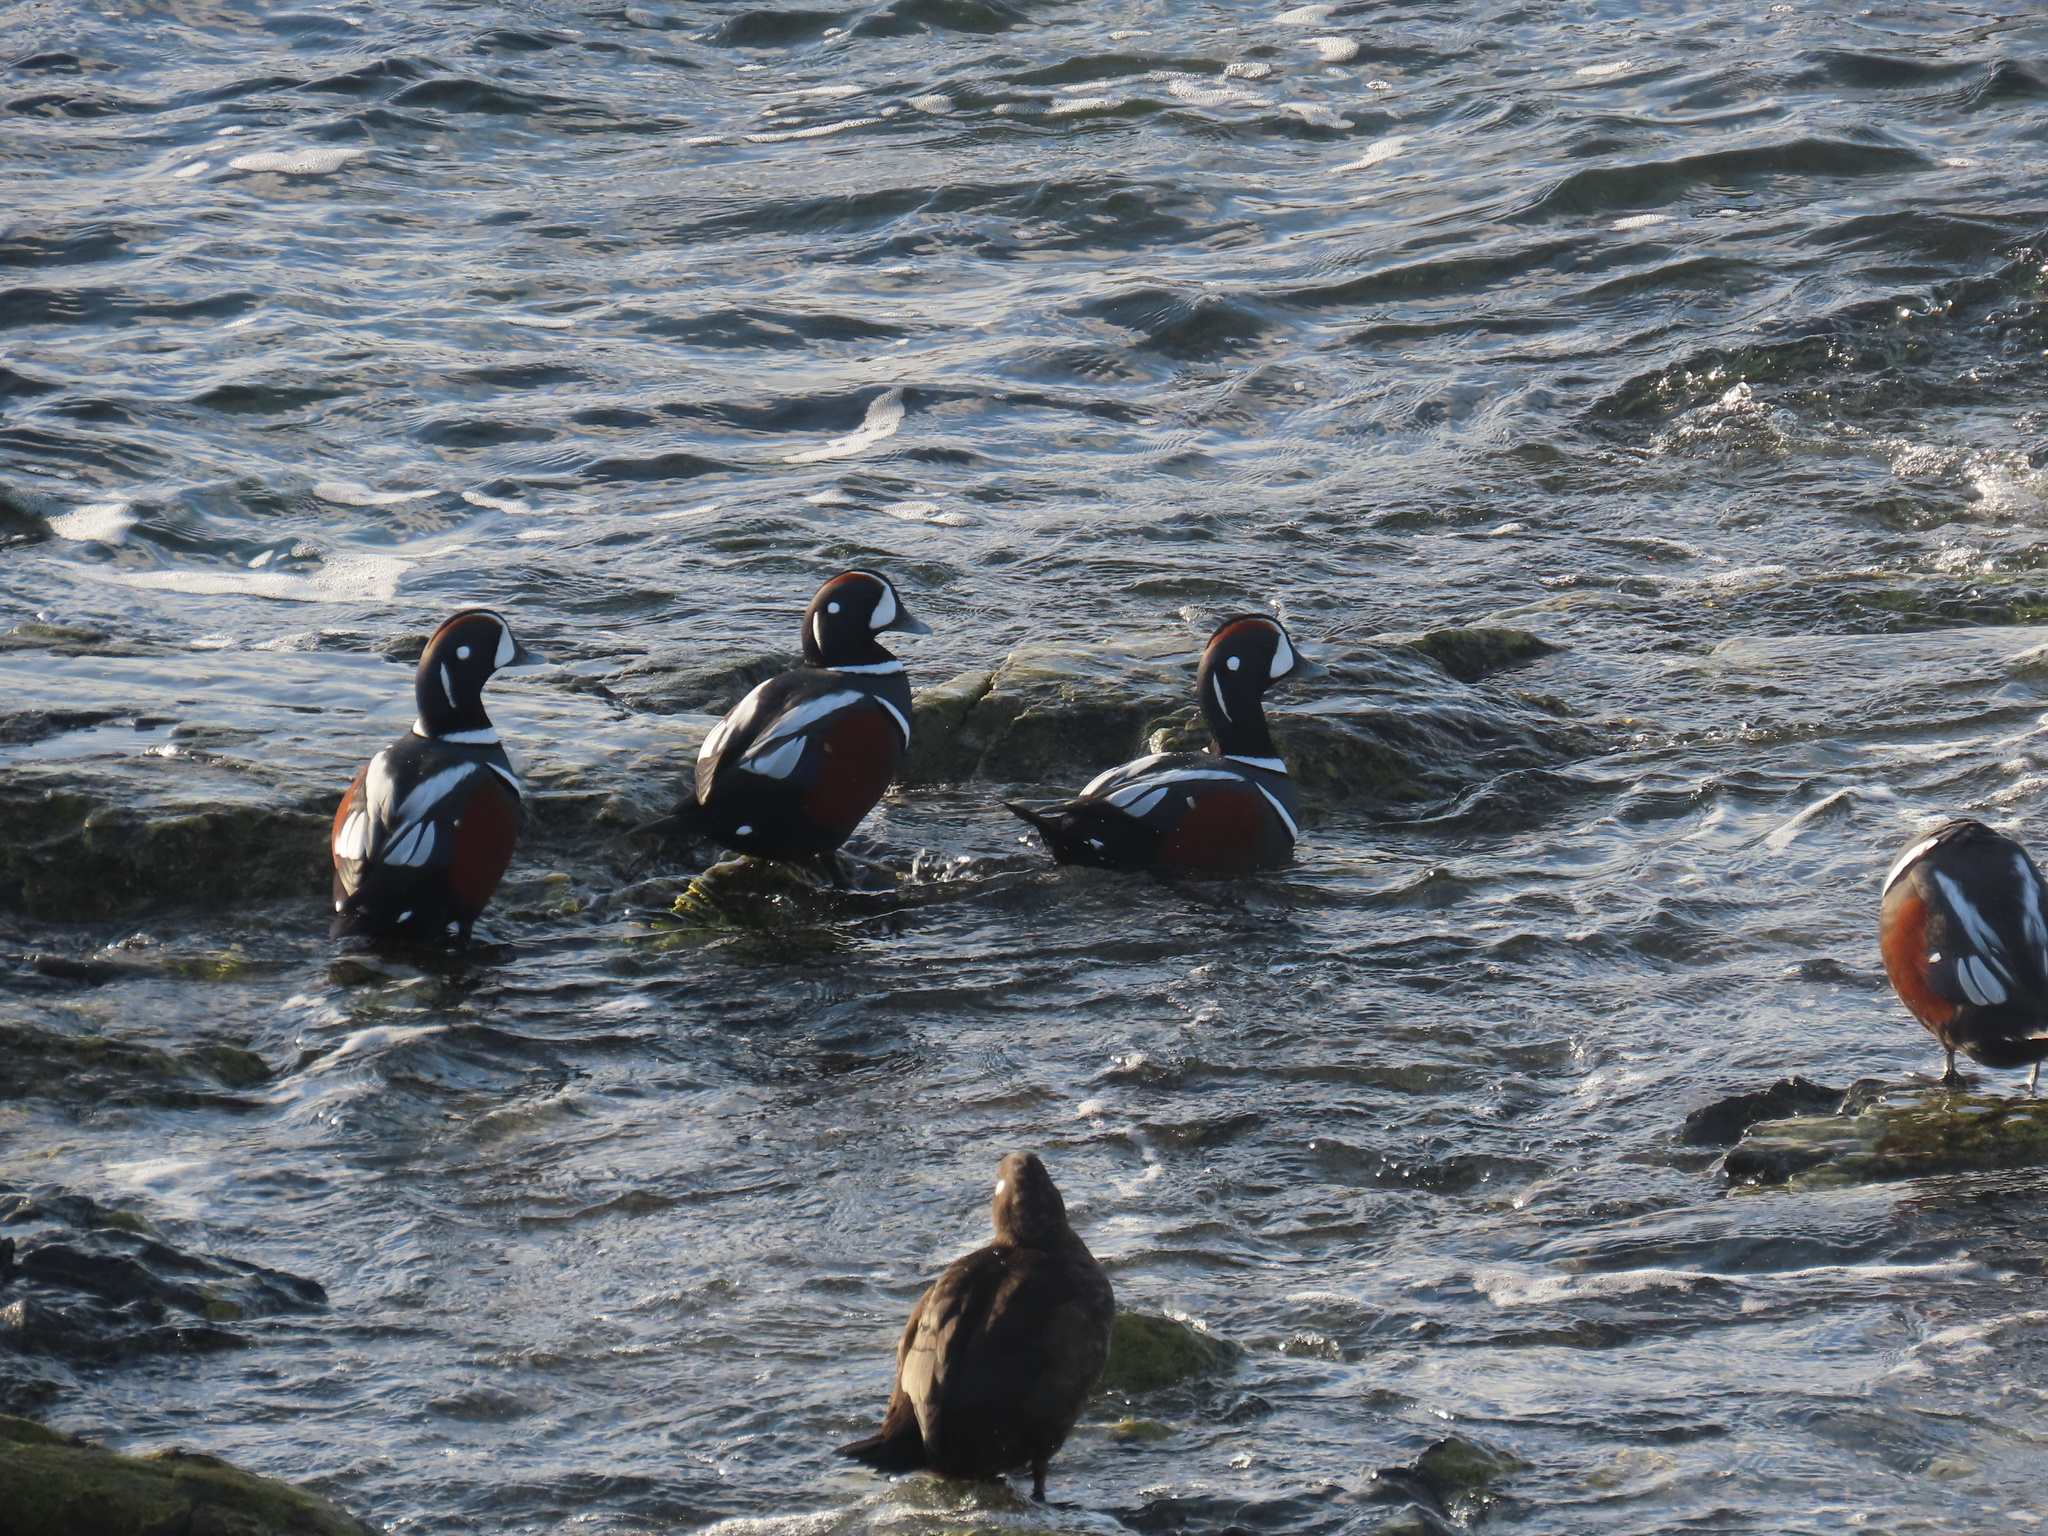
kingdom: Animalia
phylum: Chordata
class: Aves
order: Anseriformes
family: Anatidae
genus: Histrionicus
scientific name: Histrionicus histrionicus
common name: Harlequin duck
